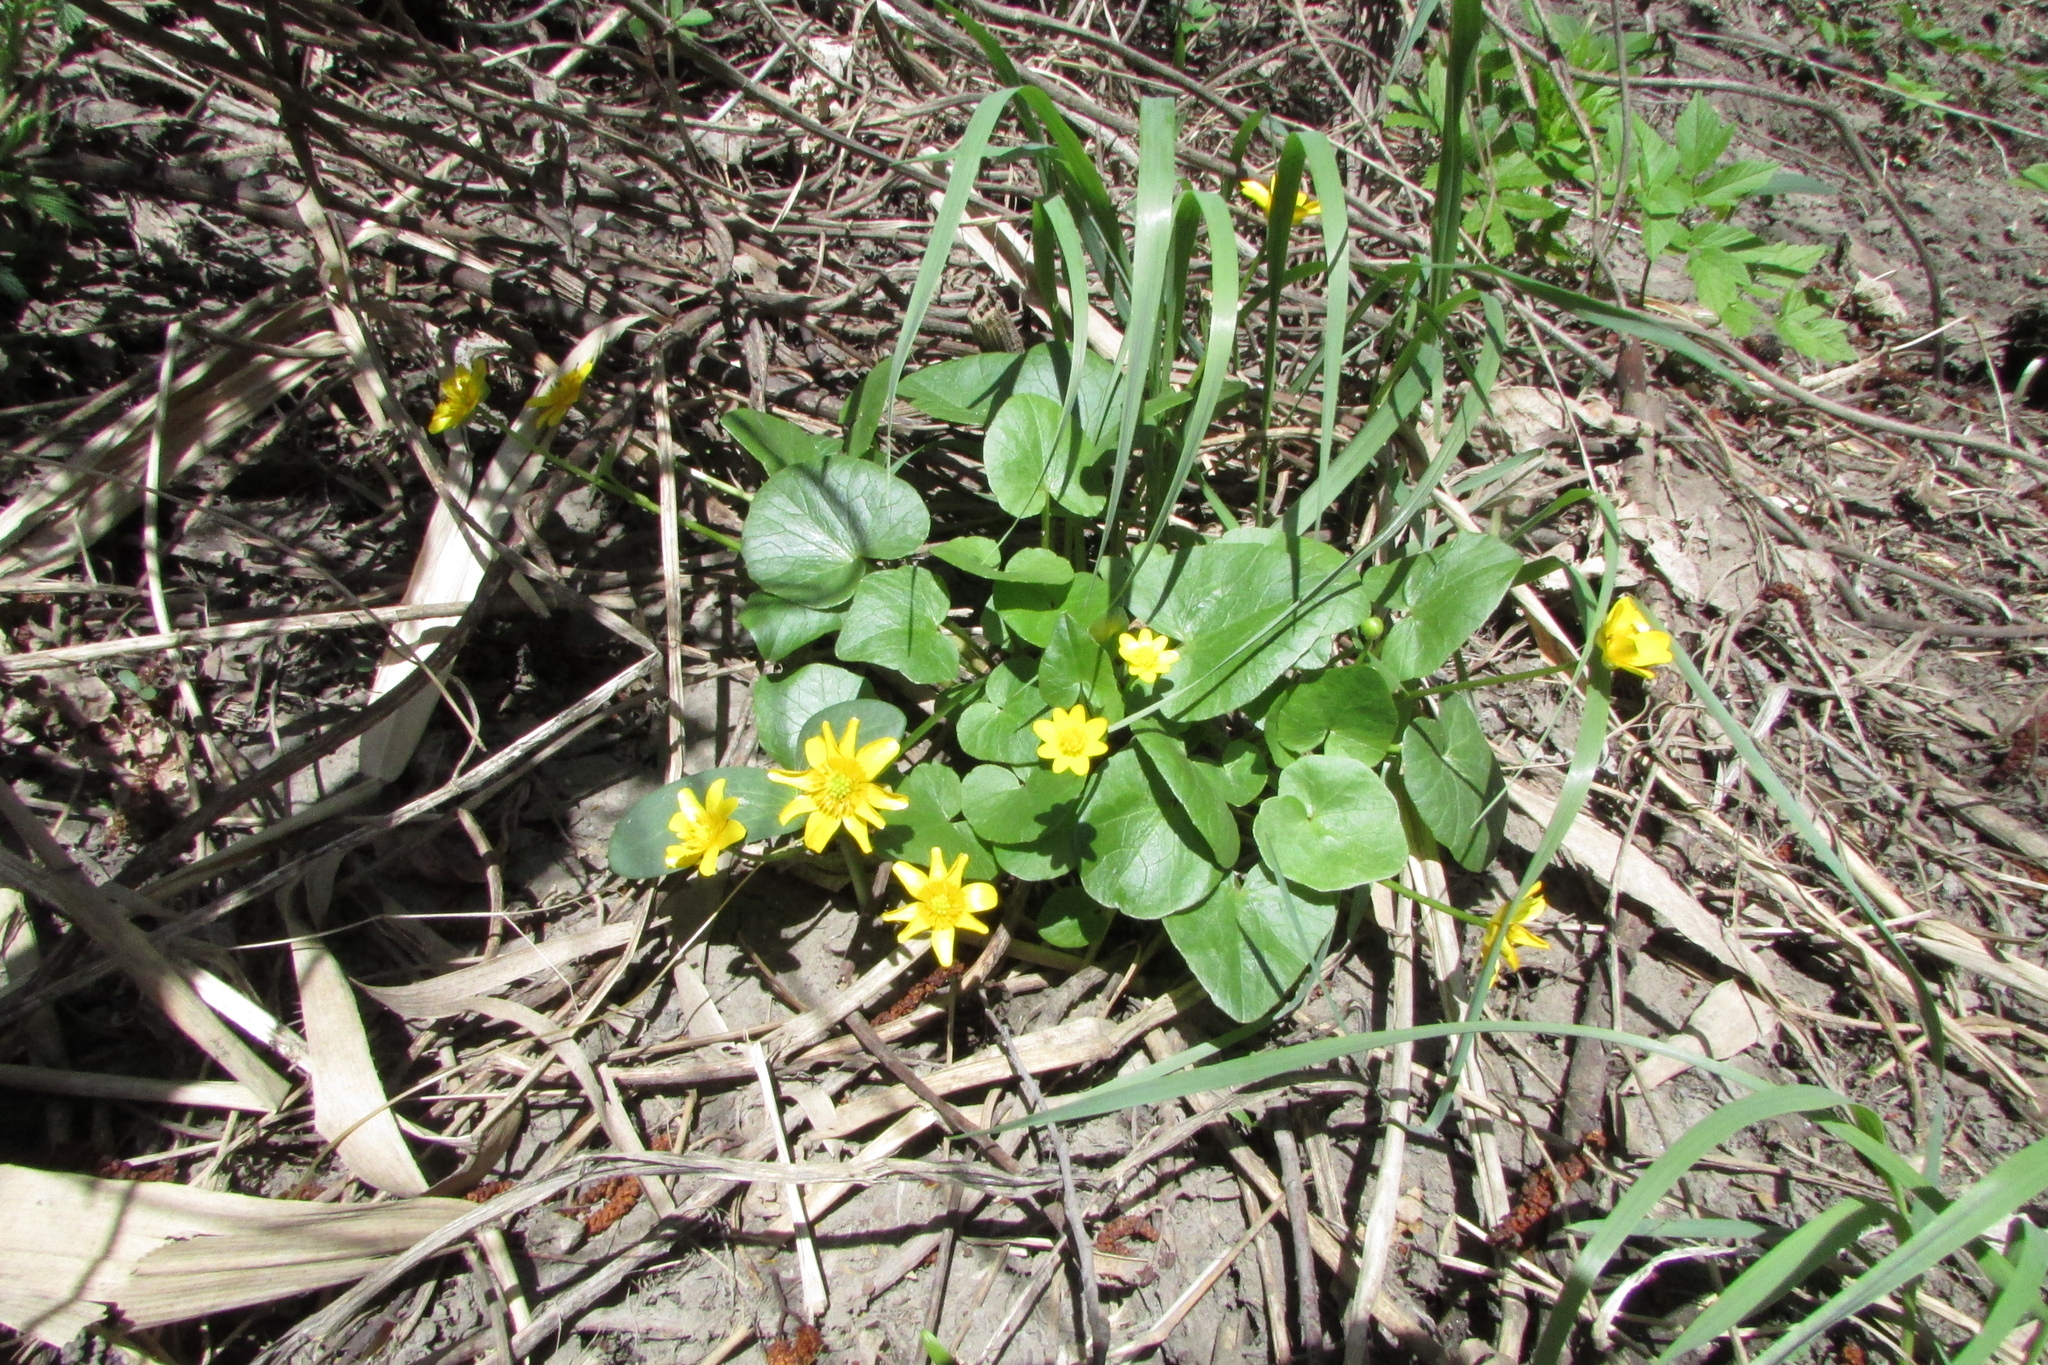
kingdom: Plantae
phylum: Tracheophyta
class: Magnoliopsida
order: Ranunculales
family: Ranunculaceae
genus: Ficaria
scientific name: Ficaria
